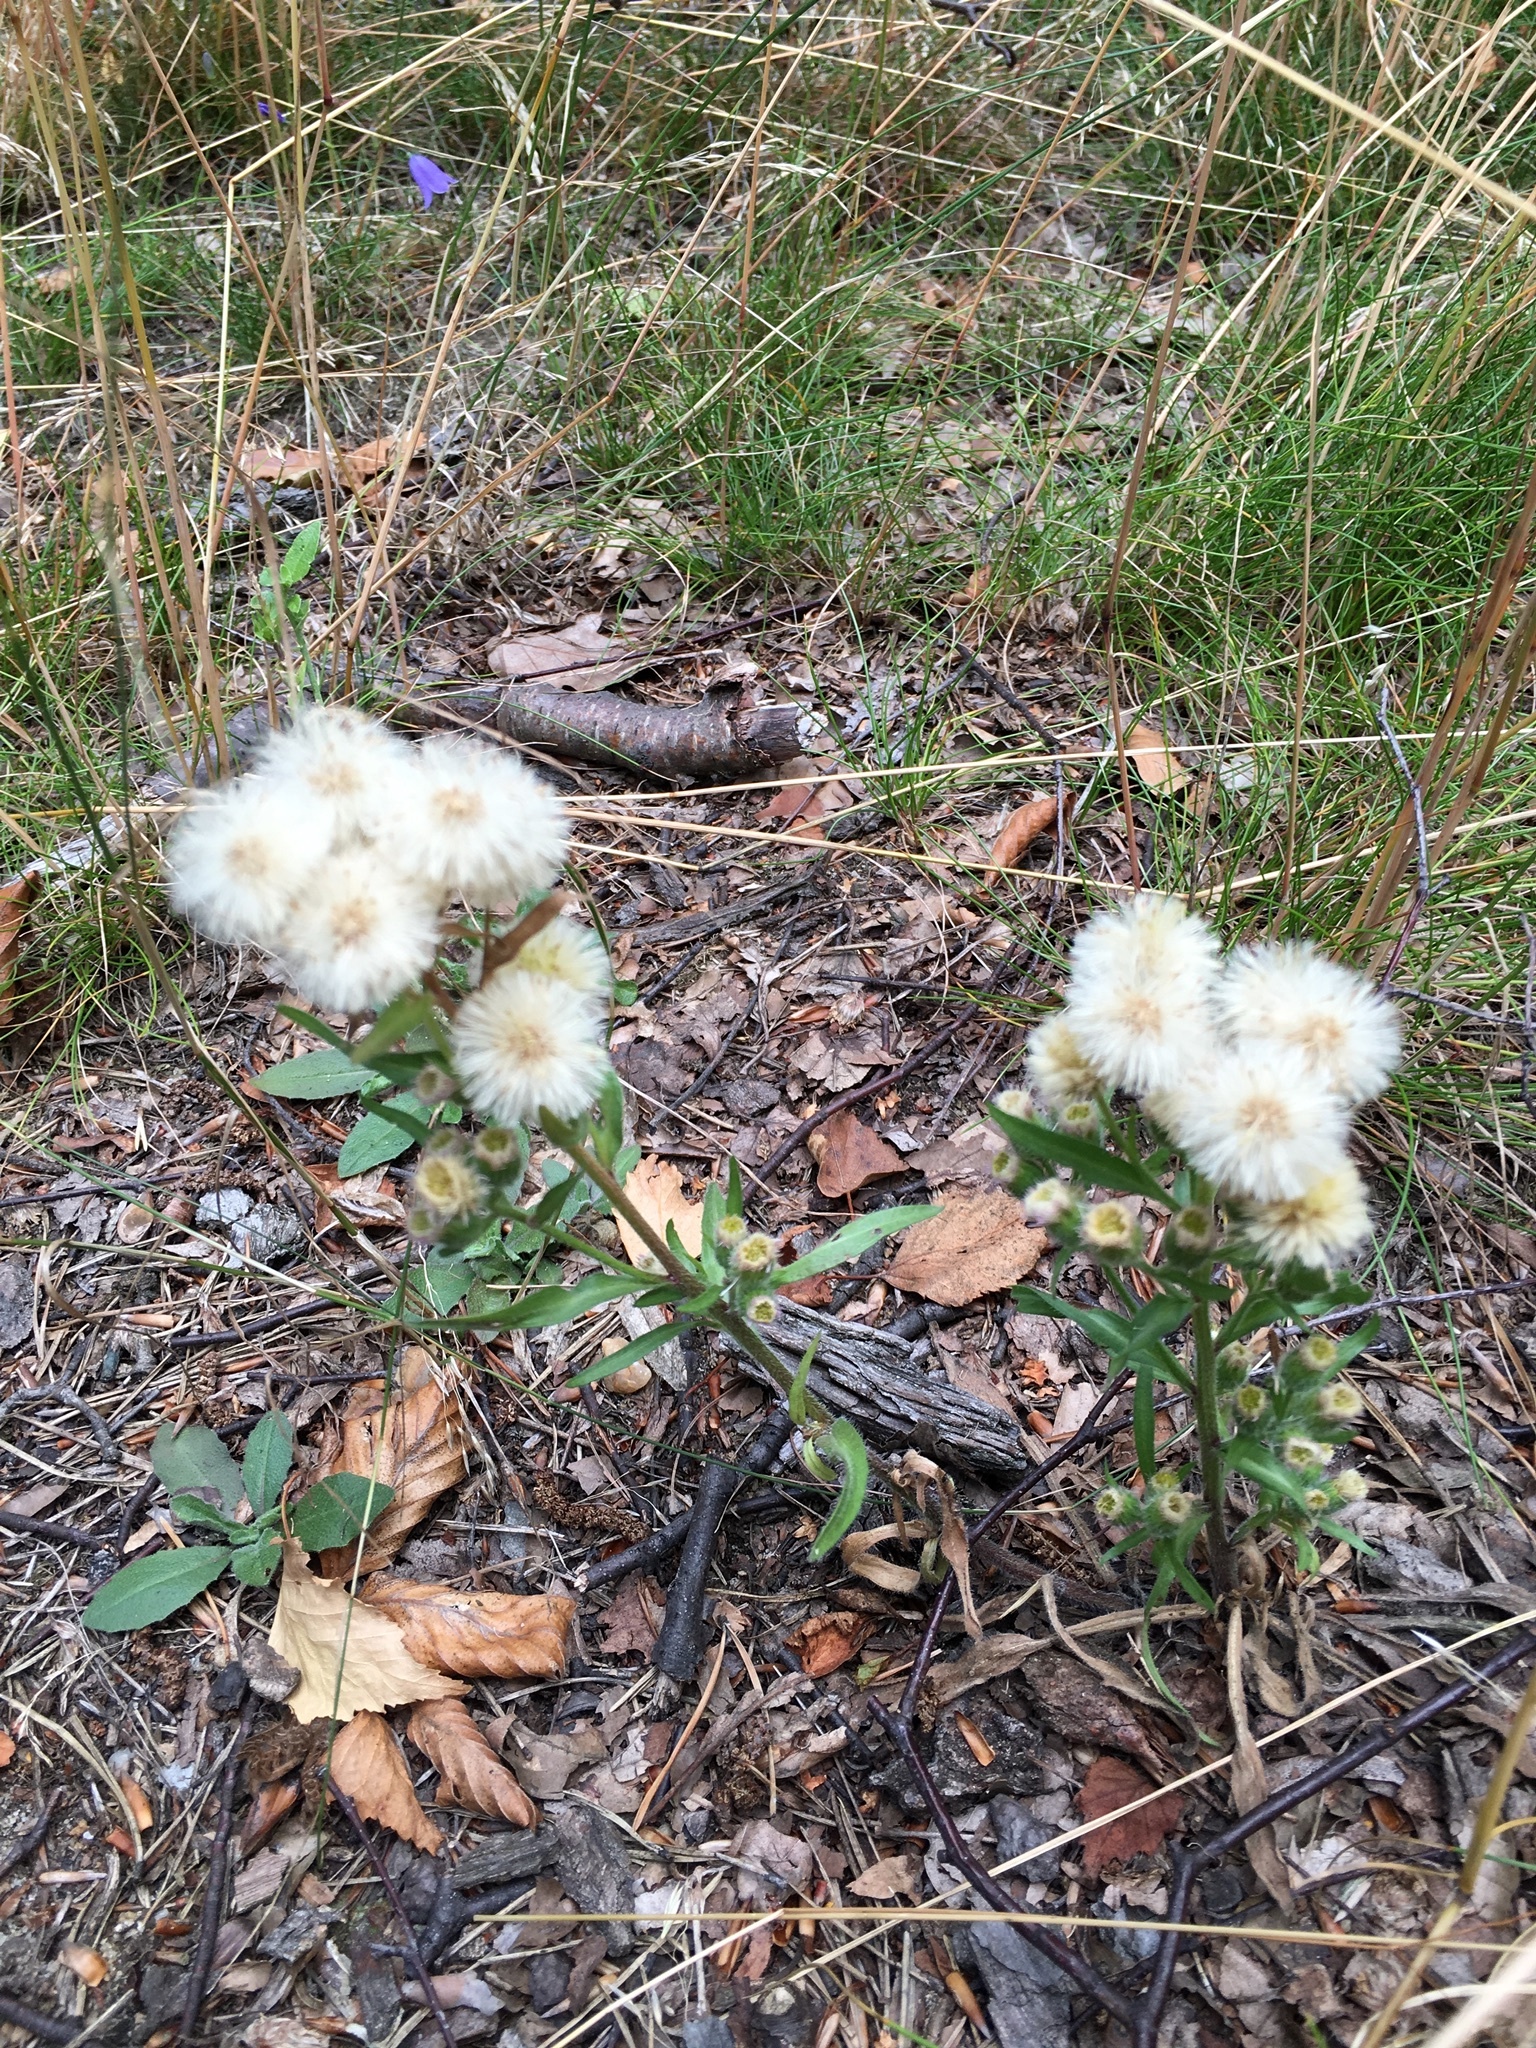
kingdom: Plantae
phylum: Tracheophyta
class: Magnoliopsida
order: Asterales
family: Asteraceae
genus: Erigeron
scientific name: Erigeron acris
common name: Blue fleabane
